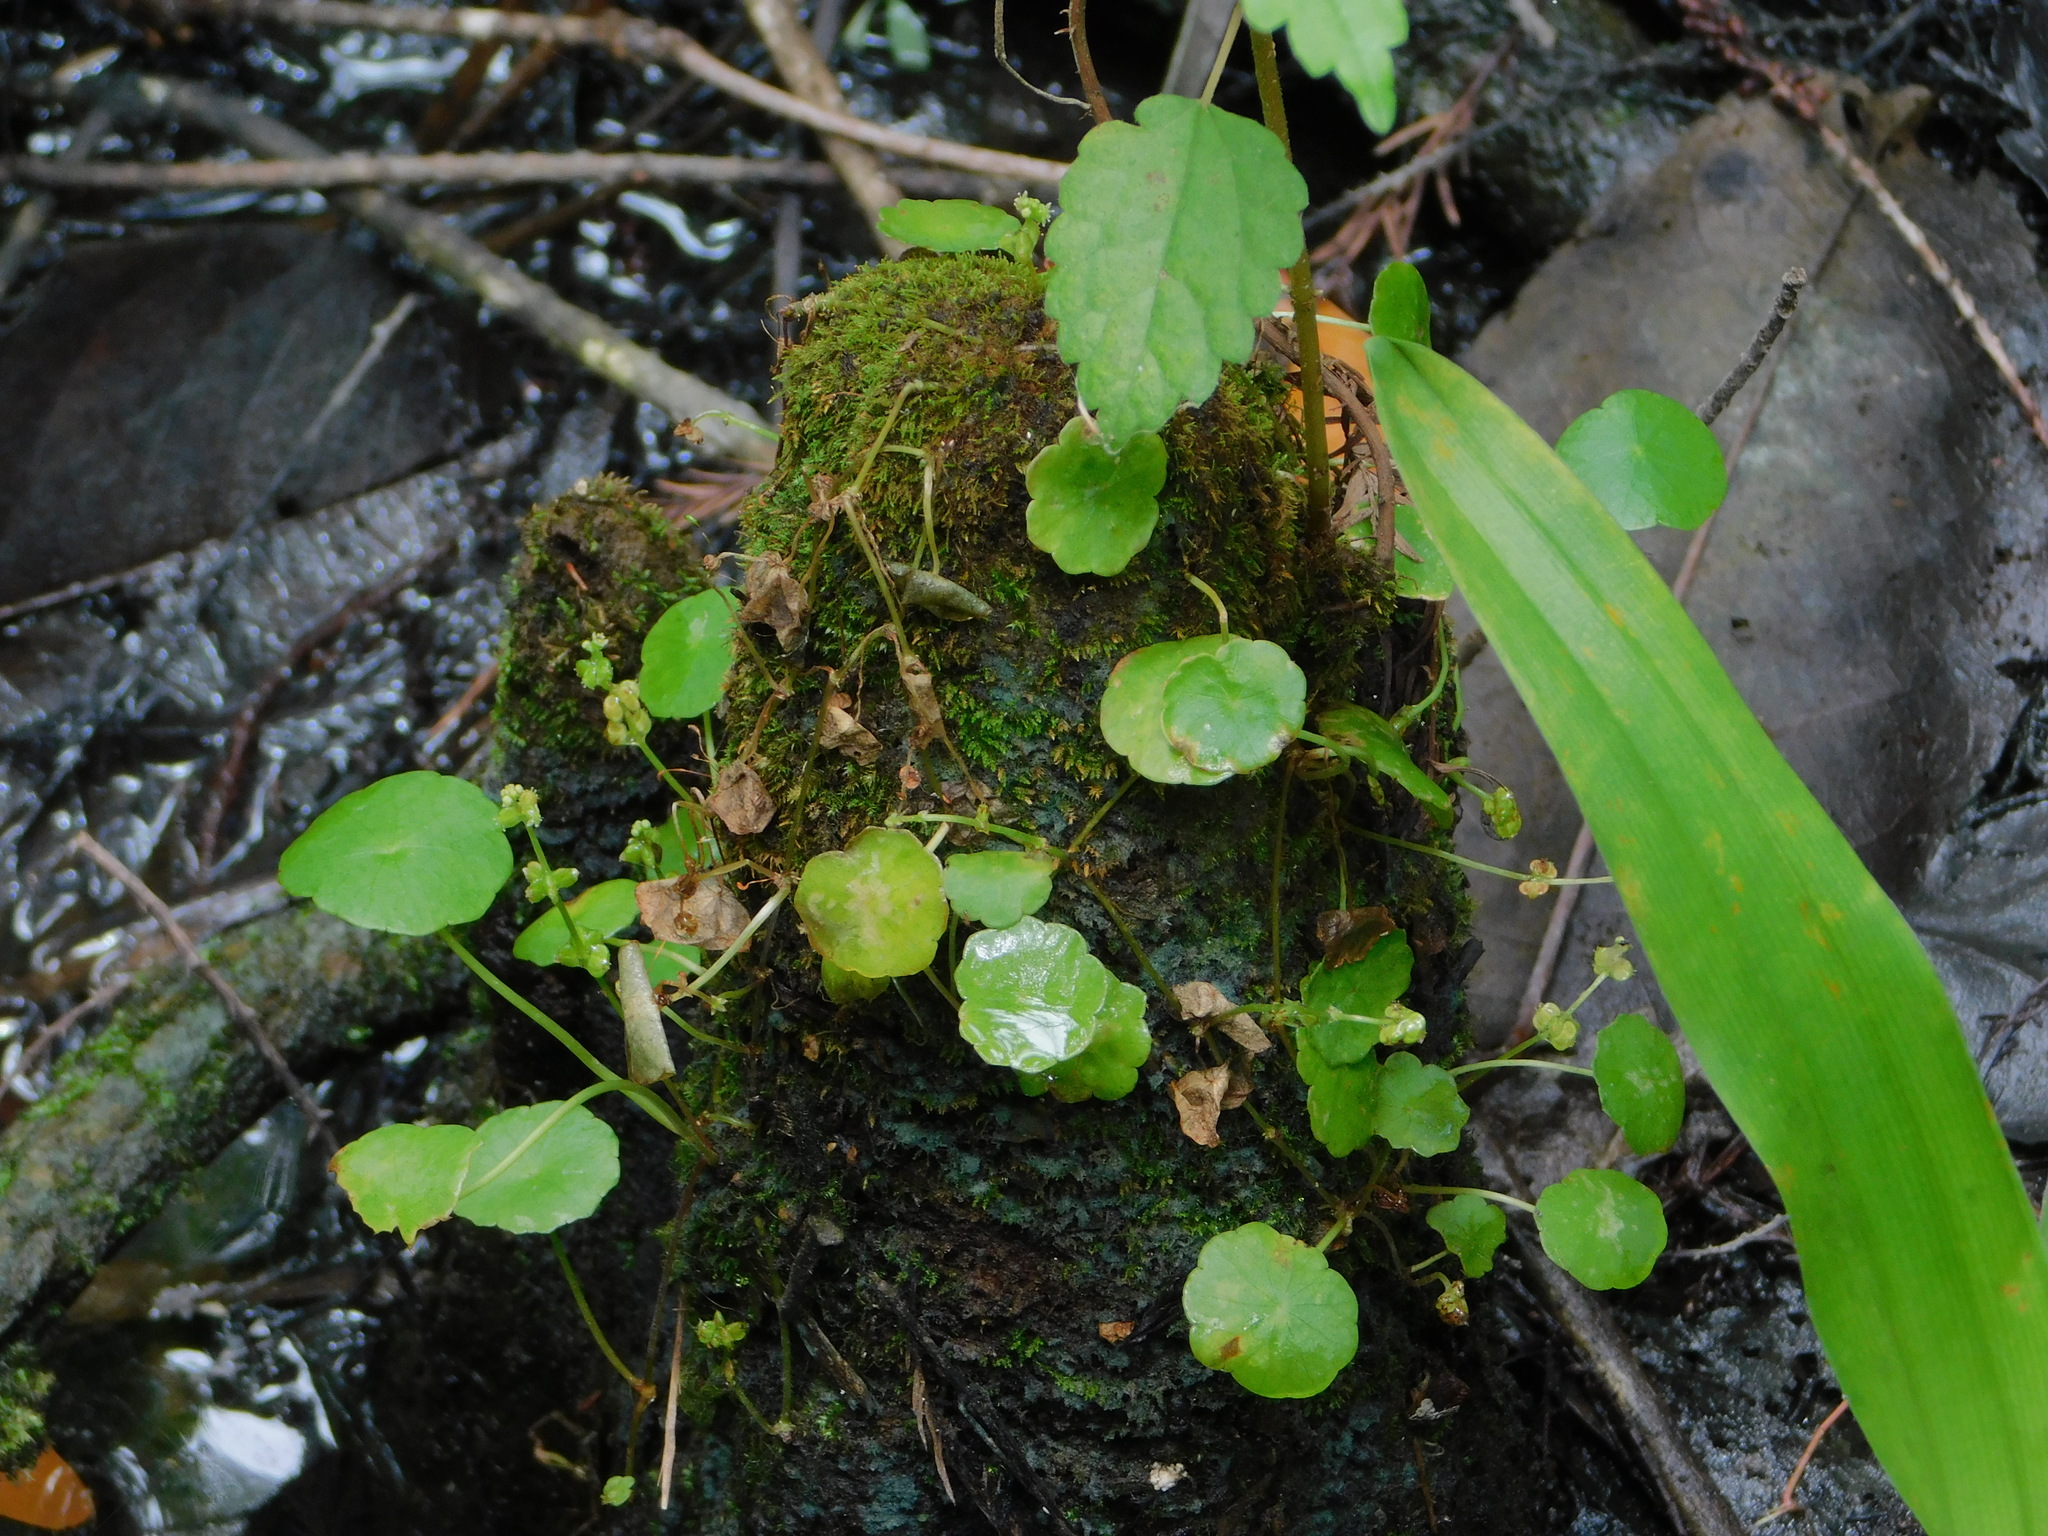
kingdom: Plantae
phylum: Tracheophyta
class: Magnoliopsida
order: Apiales
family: Araliaceae
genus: Hydrocotyle
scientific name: Hydrocotyle verticillata
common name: Whorled marshpennywort
